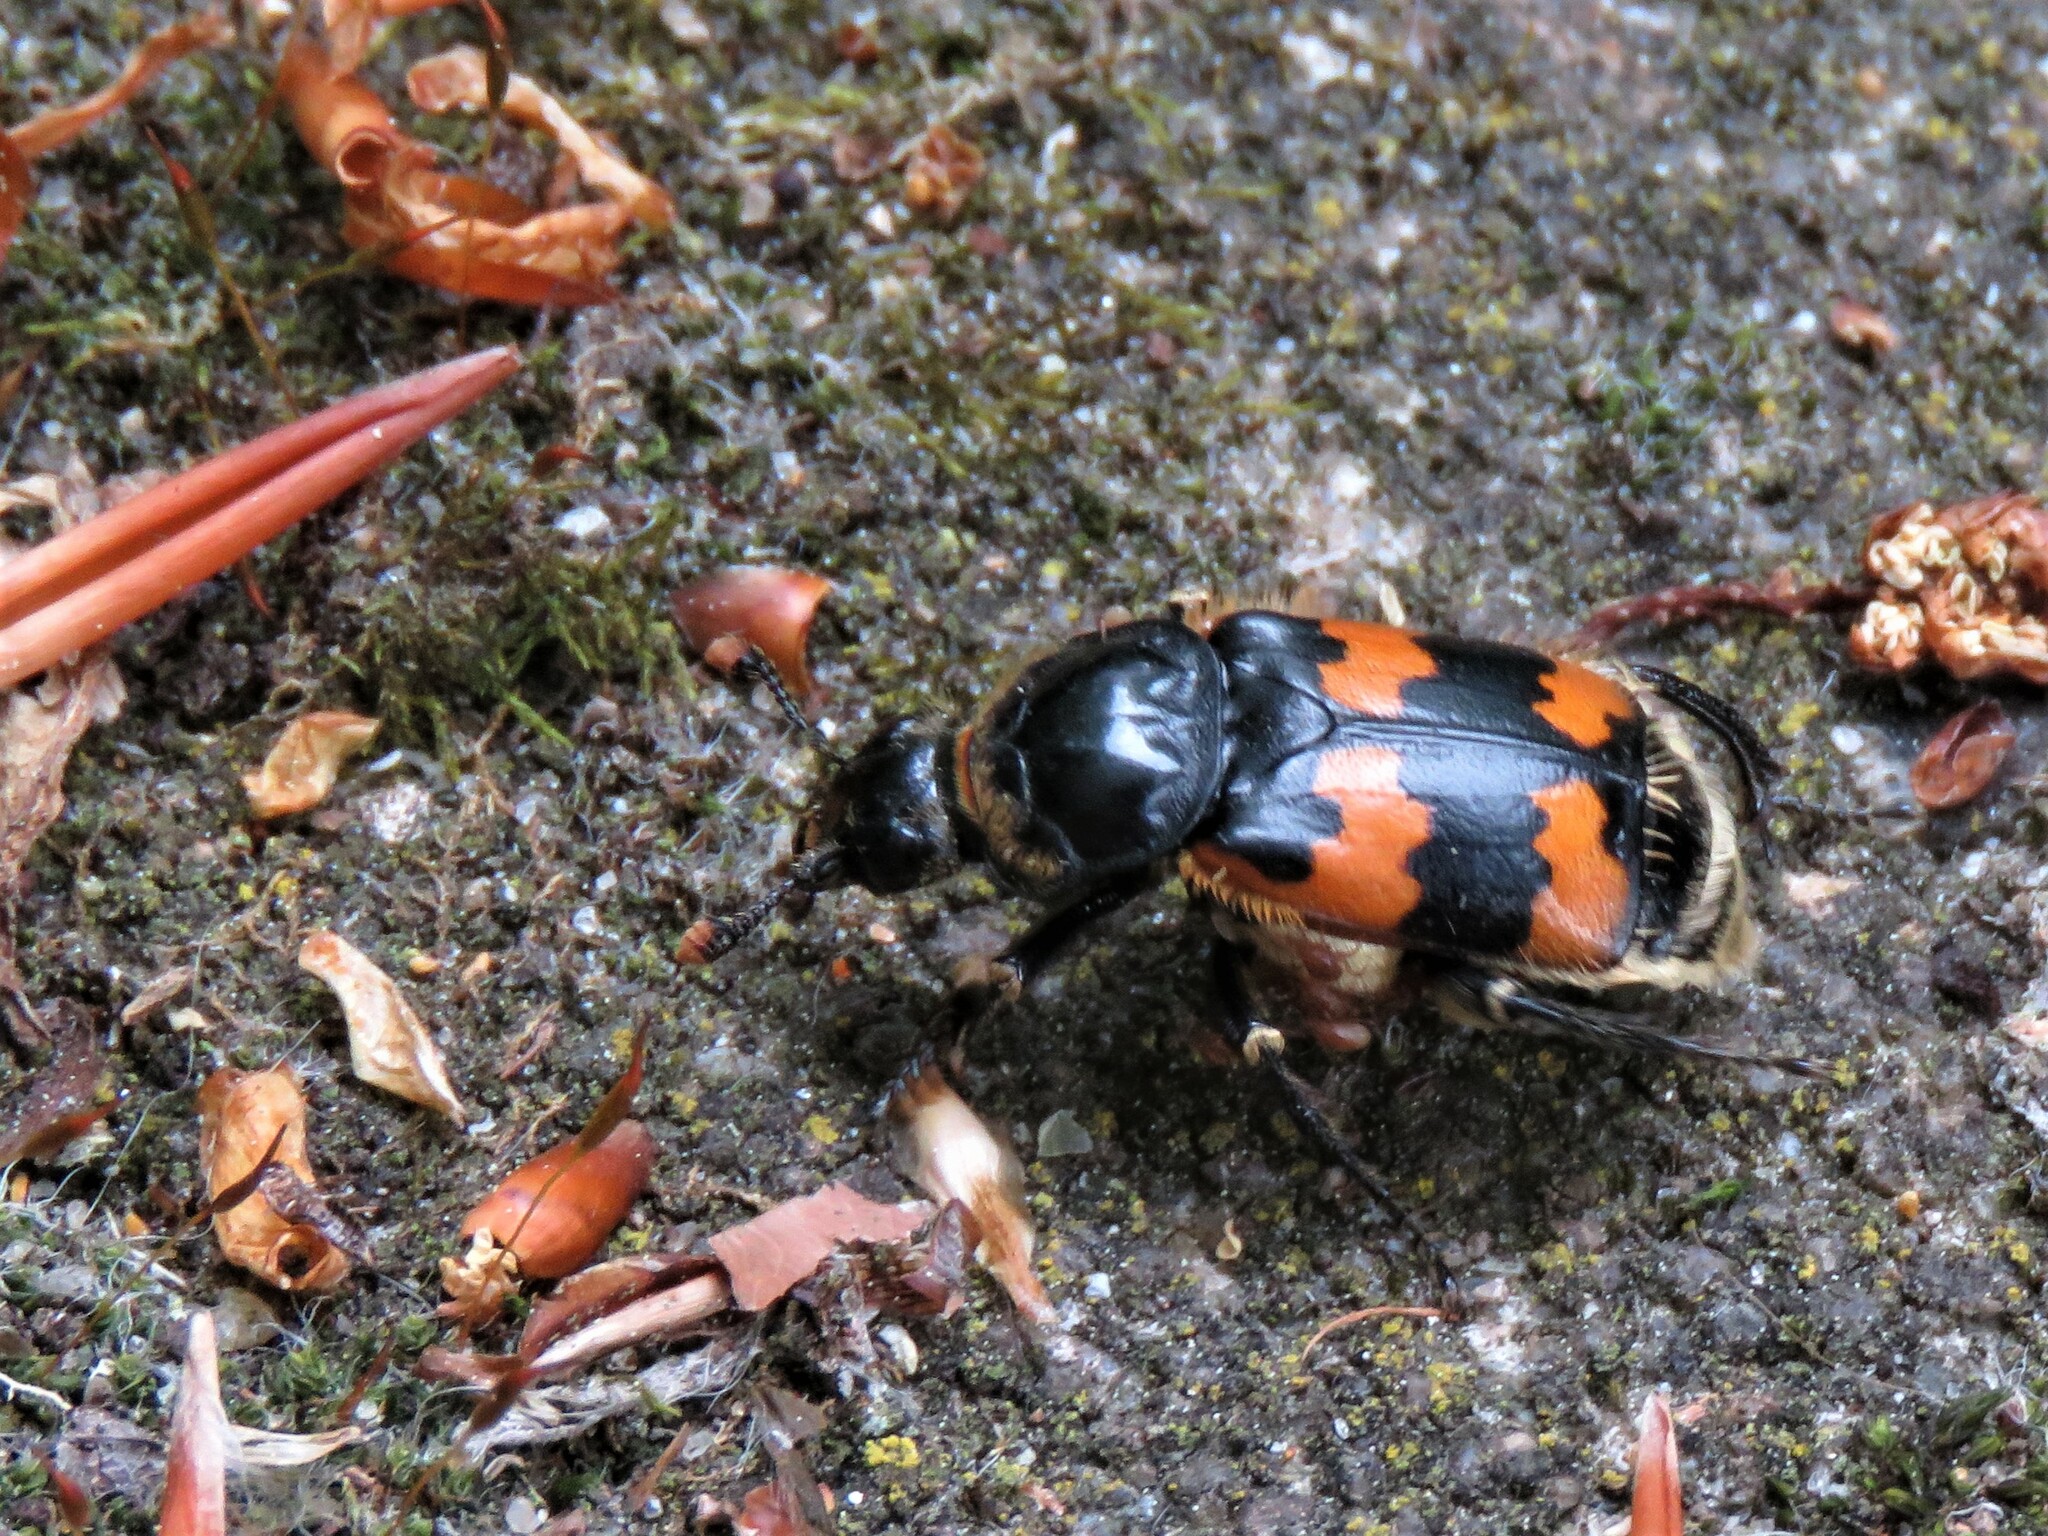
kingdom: Animalia
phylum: Arthropoda
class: Insecta
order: Coleoptera
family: Staphylinidae
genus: Nicrophorus
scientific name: Nicrophorus vespillo
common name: Common burying beetle
